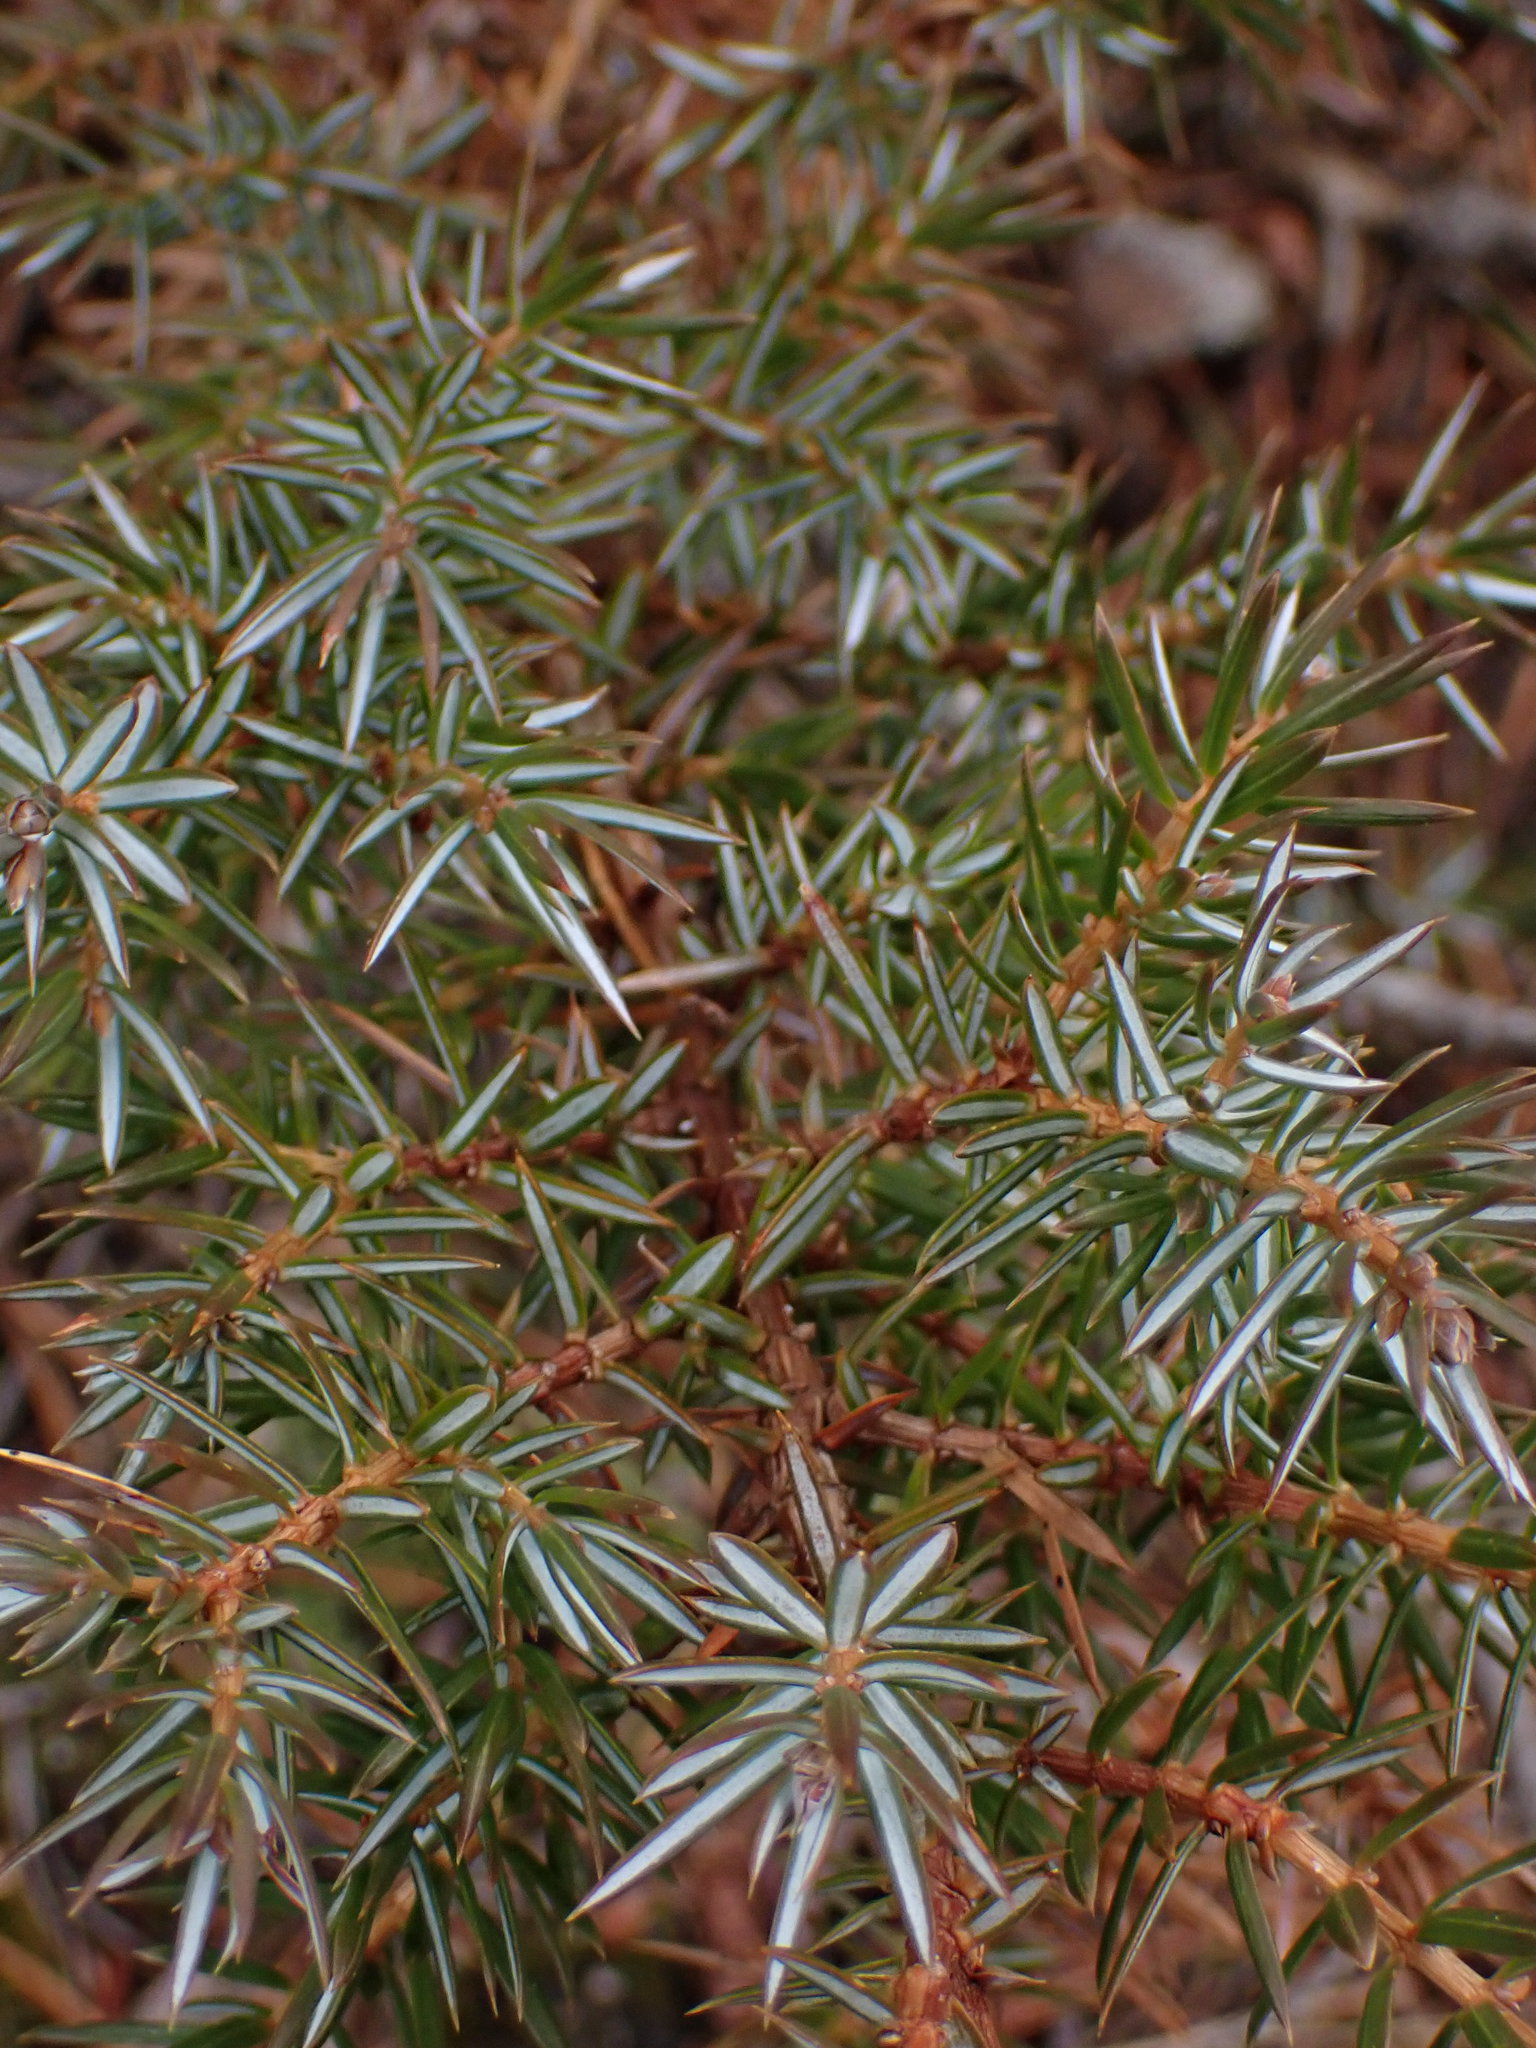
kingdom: Plantae
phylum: Tracheophyta
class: Pinopsida
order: Pinales
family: Cupressaceae
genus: Juniperus
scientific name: Juniperus communis
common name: Common juniper
